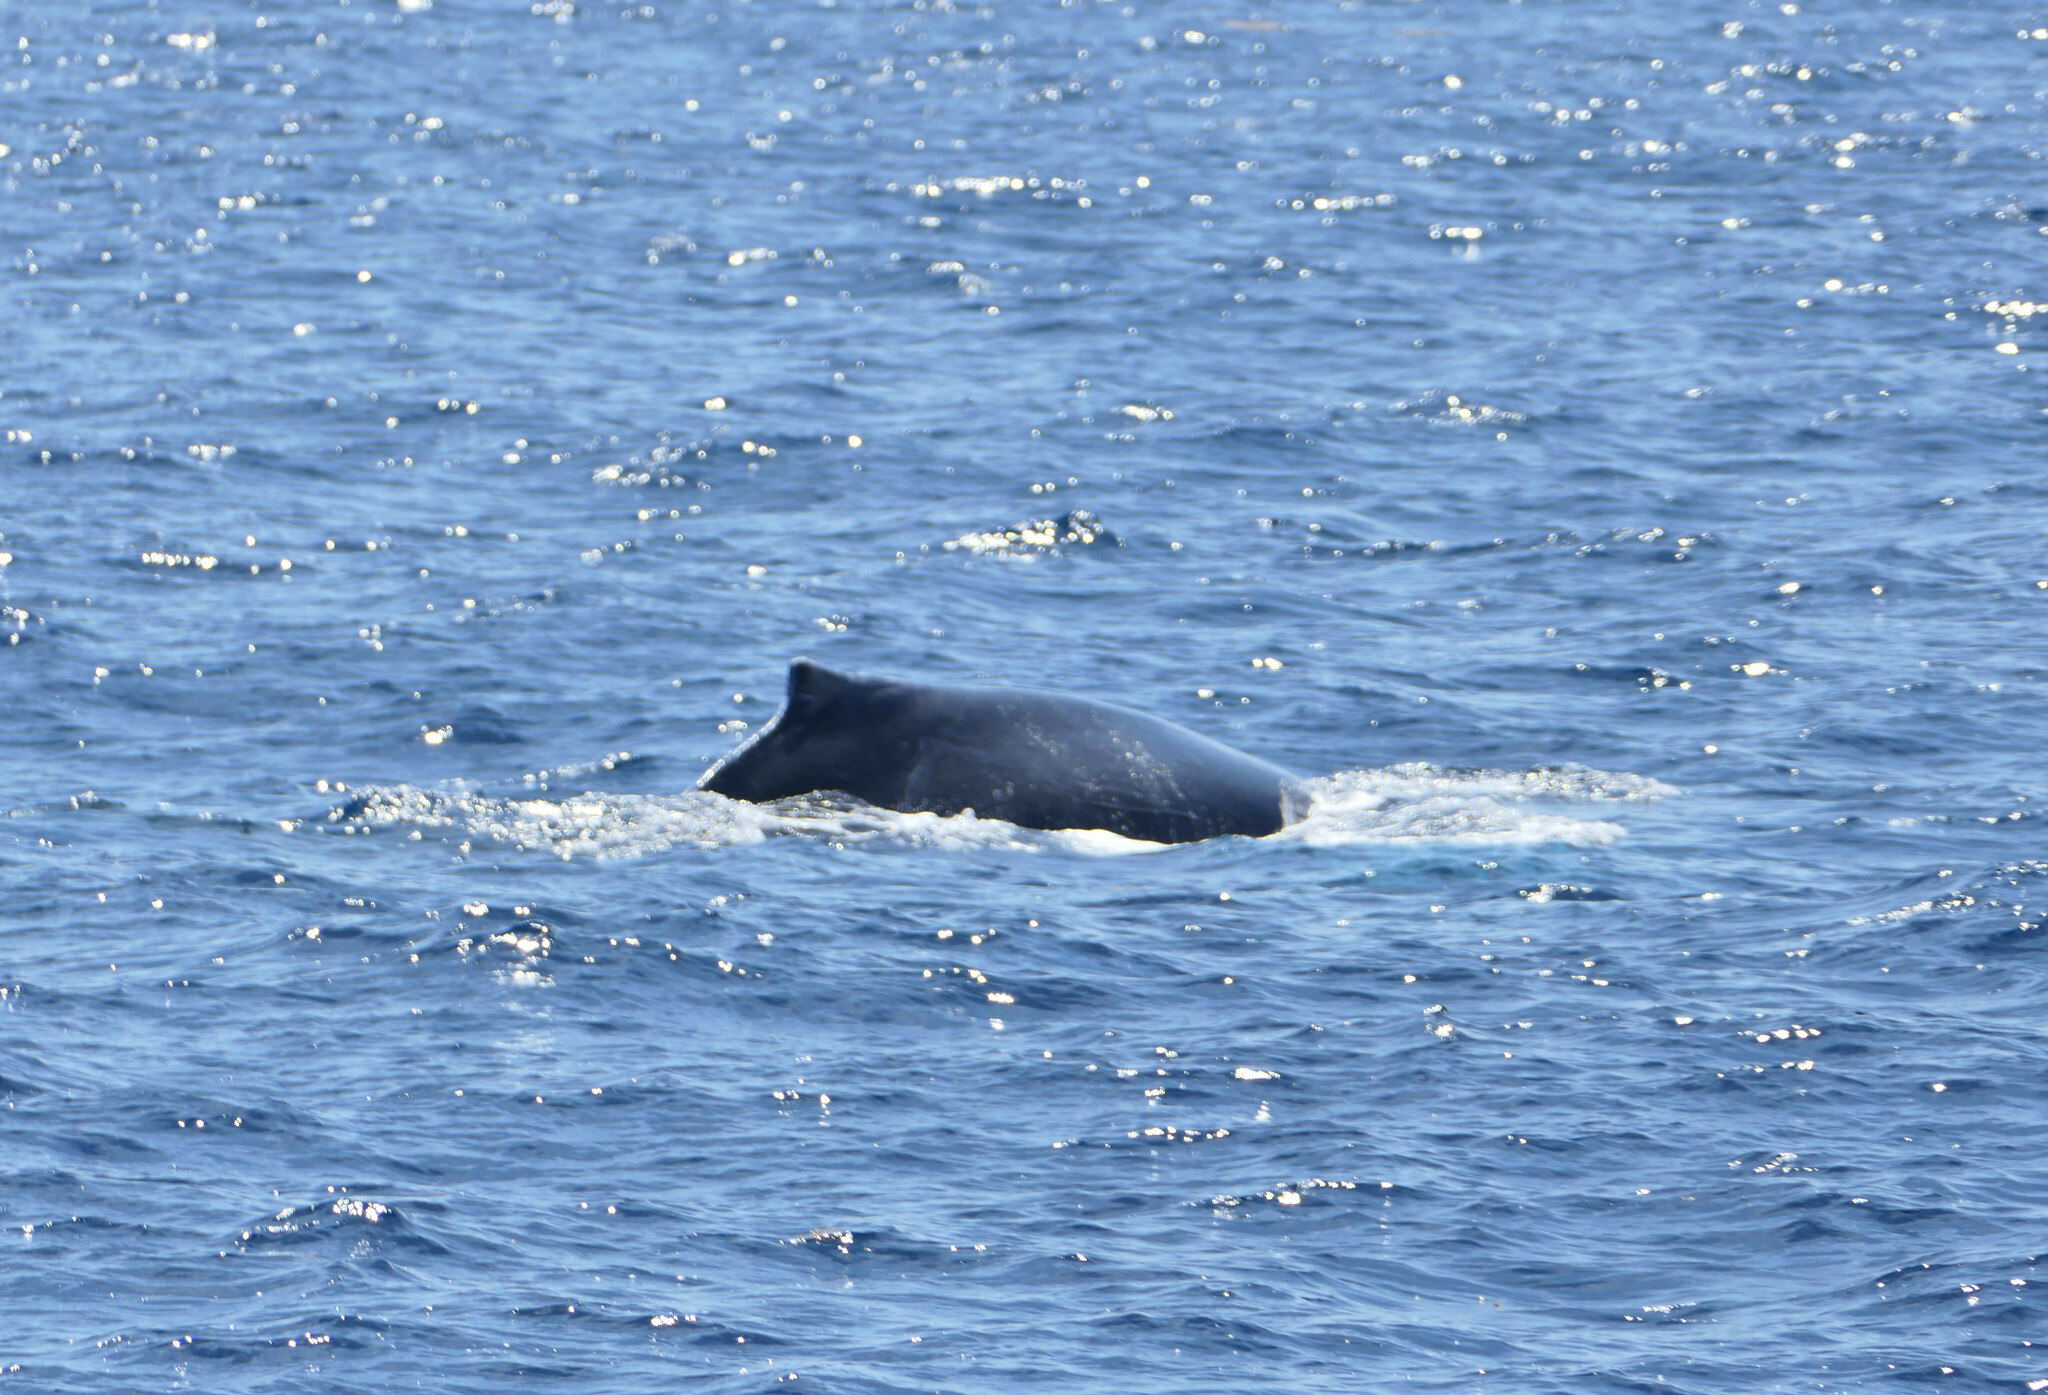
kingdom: Animalia
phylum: Chordata
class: Mammalia
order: Cetacea
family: Balaenopteridae
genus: Megaptera
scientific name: Megaptera novaeangliae
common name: Humpback whale
